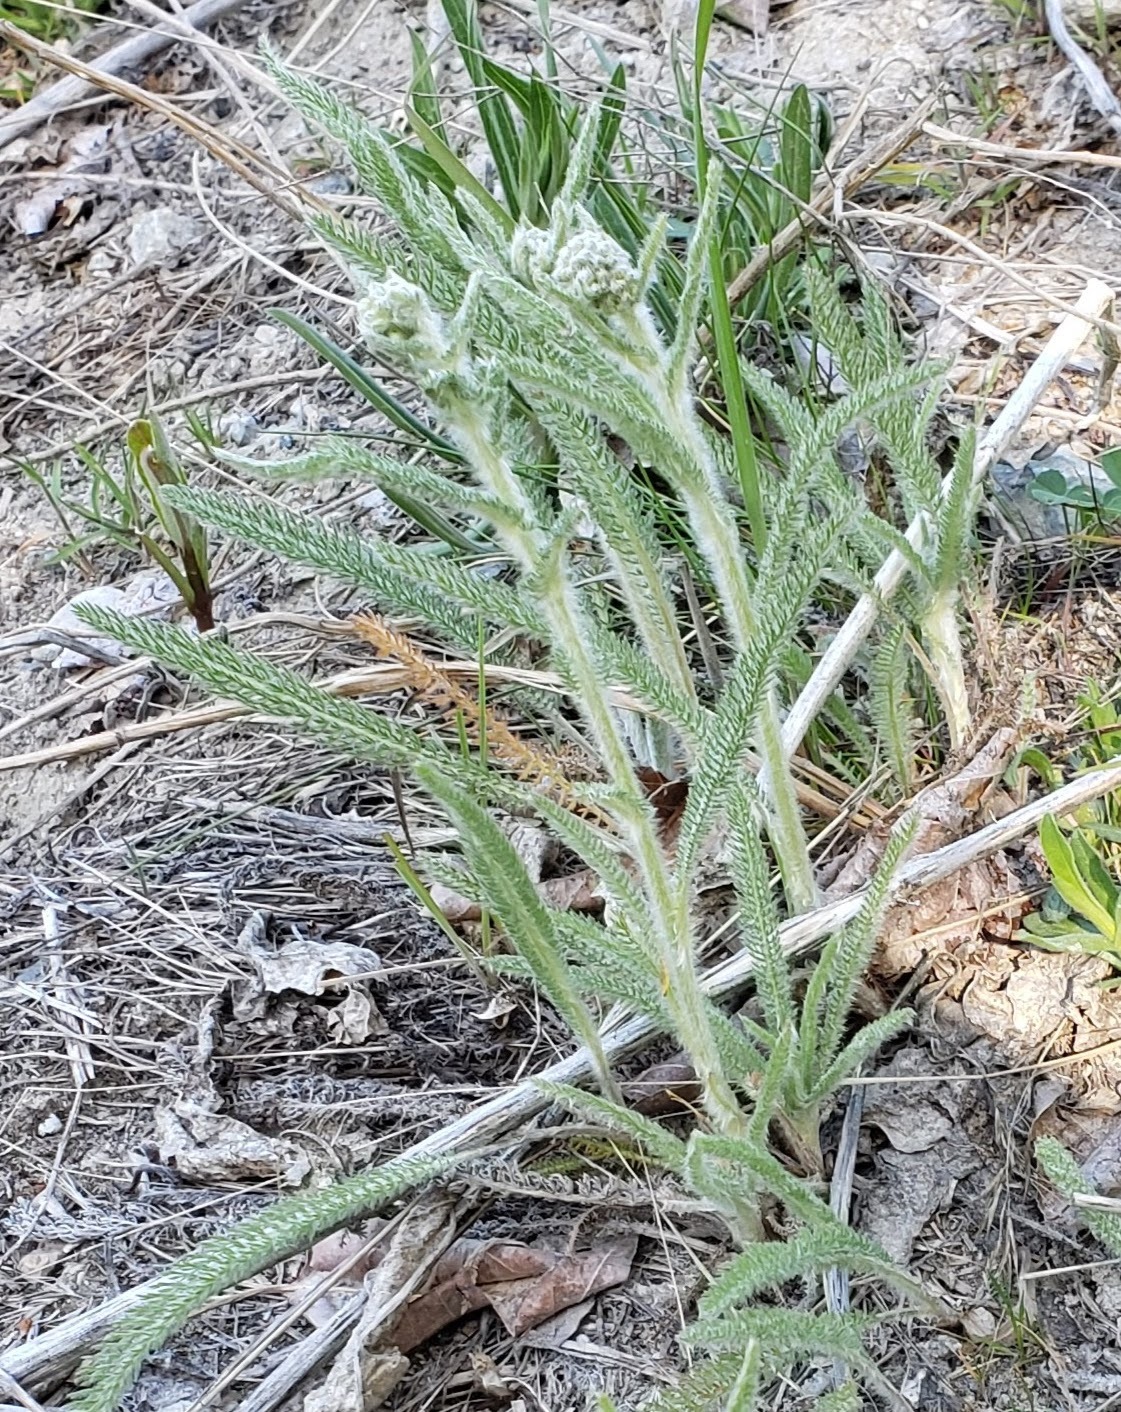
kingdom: Plantae
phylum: Tracheophyta
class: Magnoliopsida
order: Asterales
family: Asteraceae
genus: Achillea
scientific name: Achillea millefolium
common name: Yarrow
